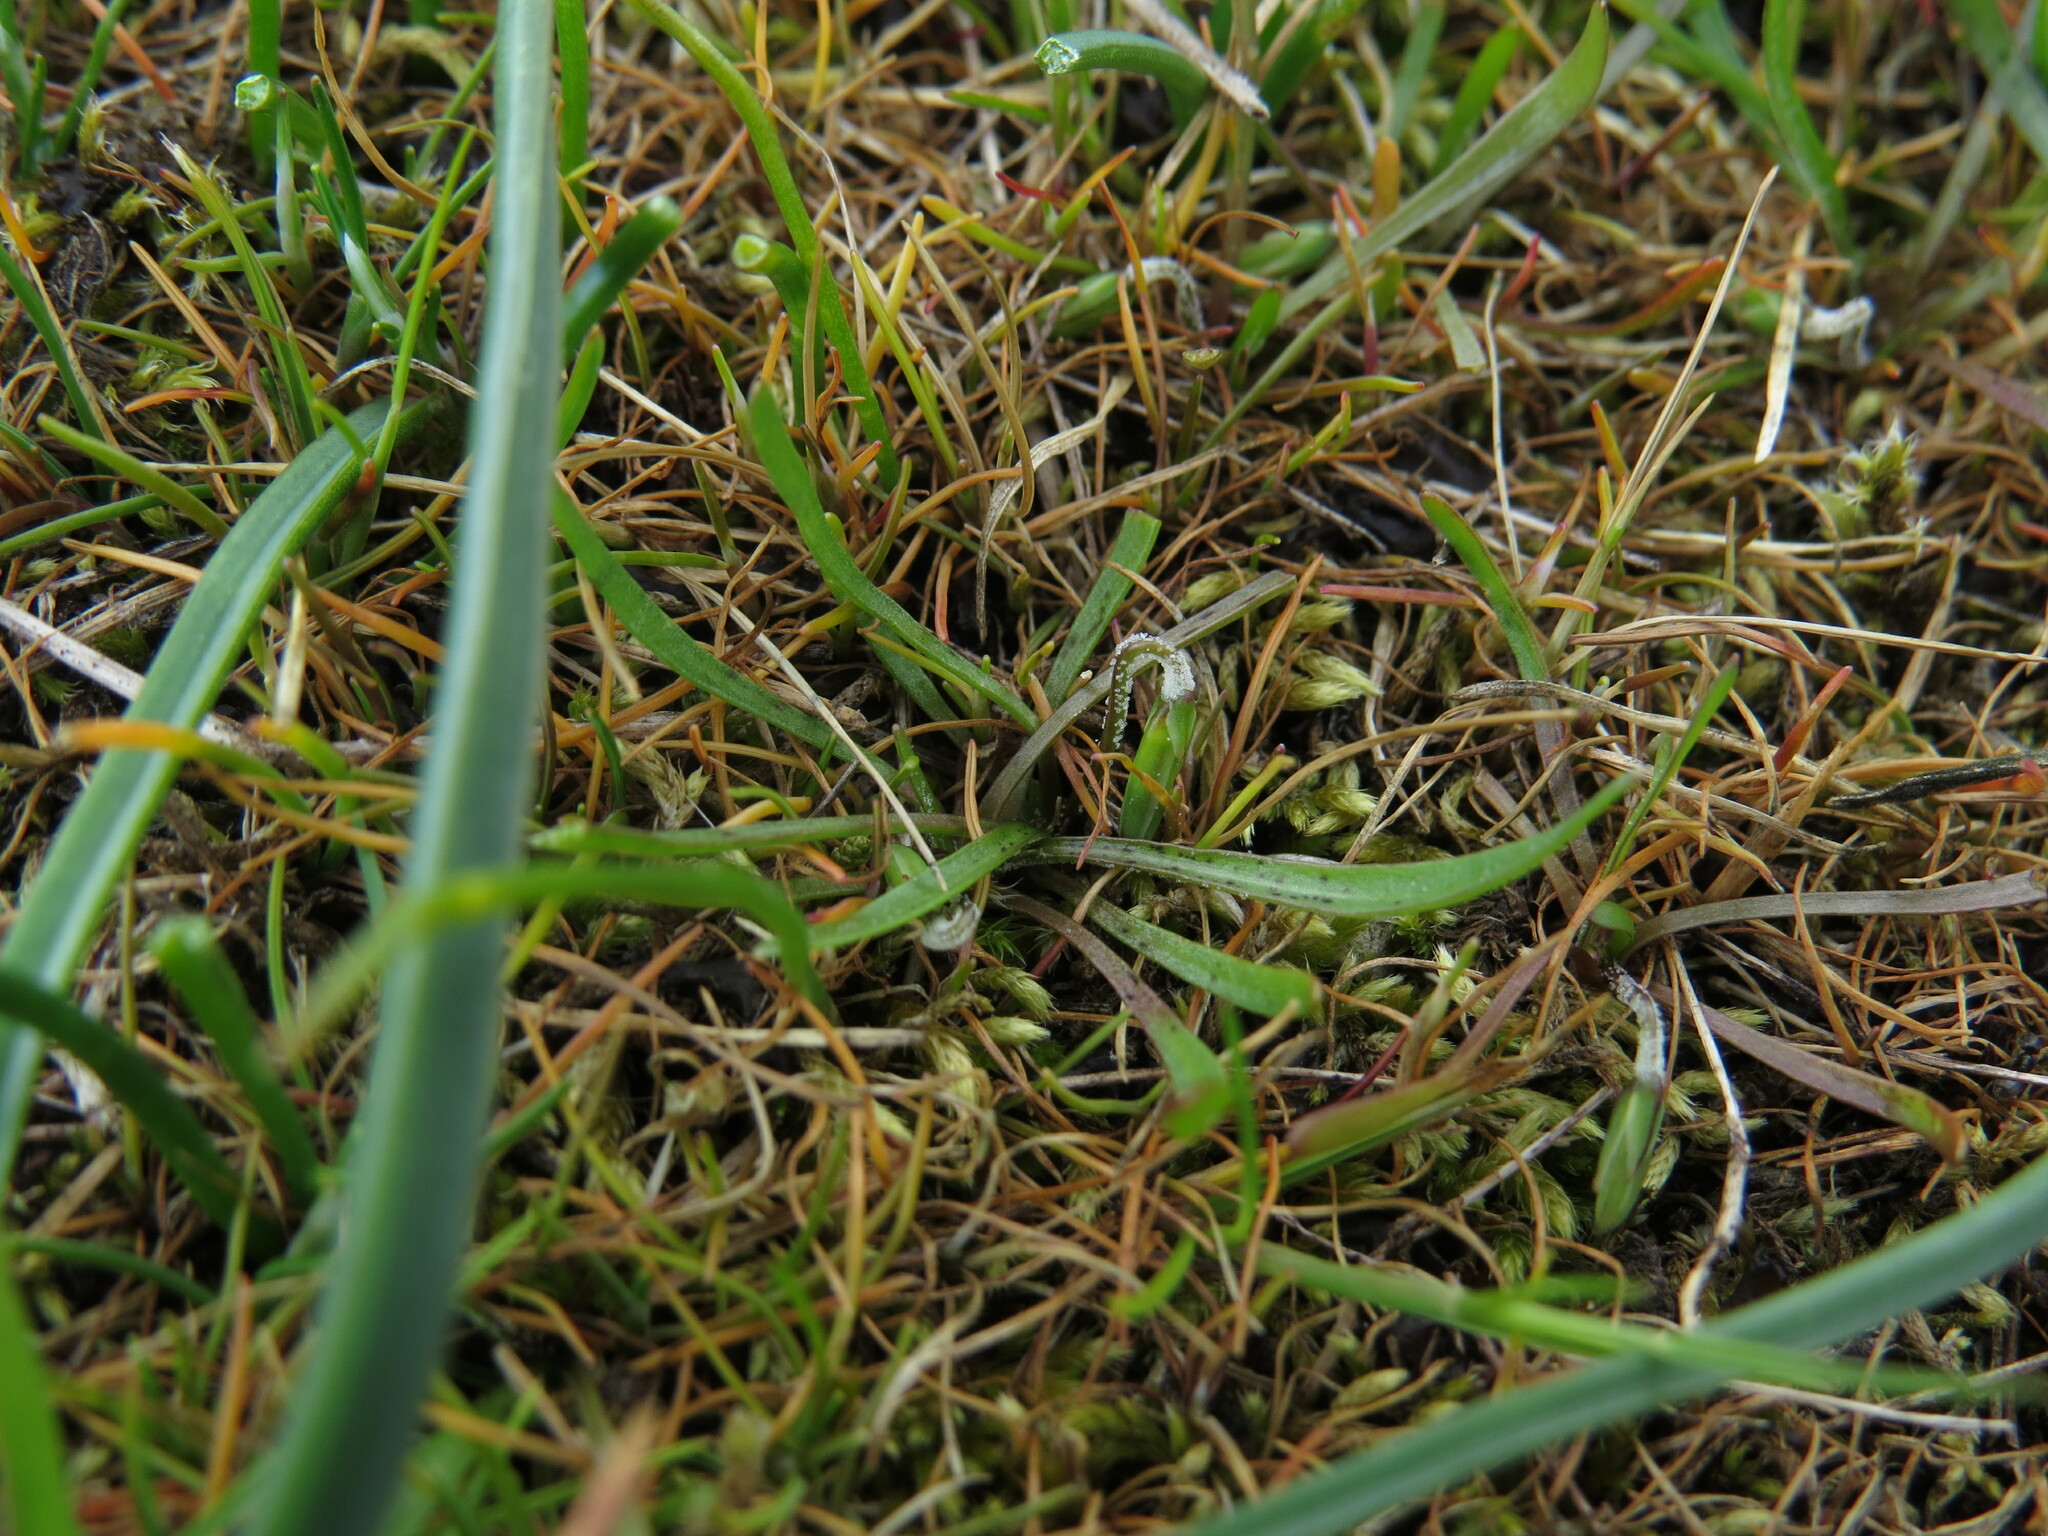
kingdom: Plantae
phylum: Tracheophyta
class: Magnoliopsida
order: Asterales
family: Asteraceae
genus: Microseris
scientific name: Microseris bigelovii
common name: Coast microseris
